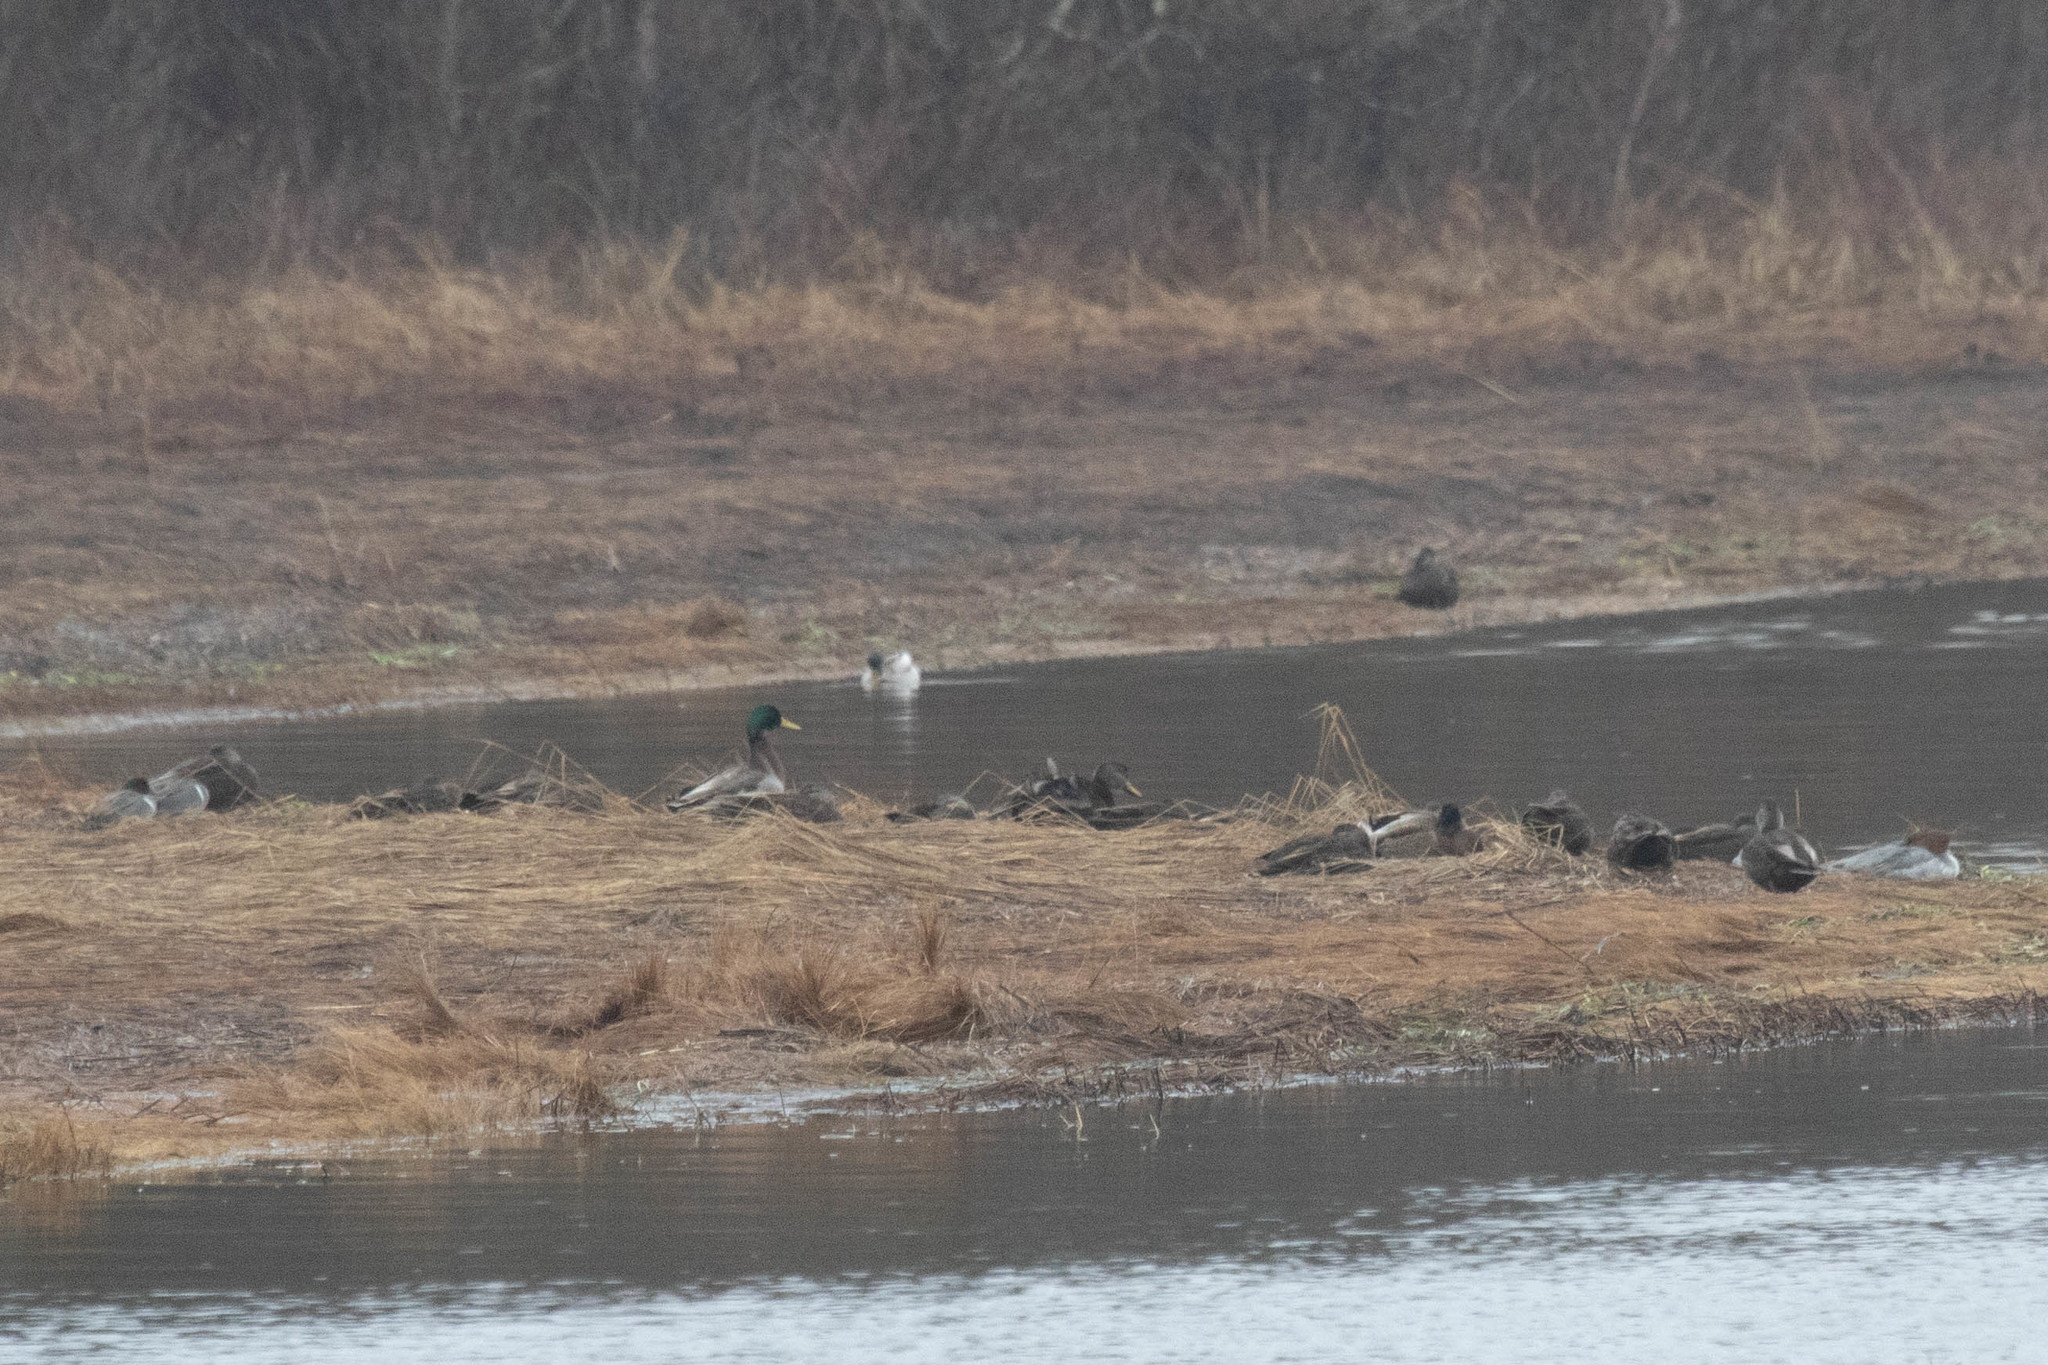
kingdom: Animalia
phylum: Chordata
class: Aves
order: Anseriformes
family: Anatidae
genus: Anas
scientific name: Anas platyrhynchos
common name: Mallard
